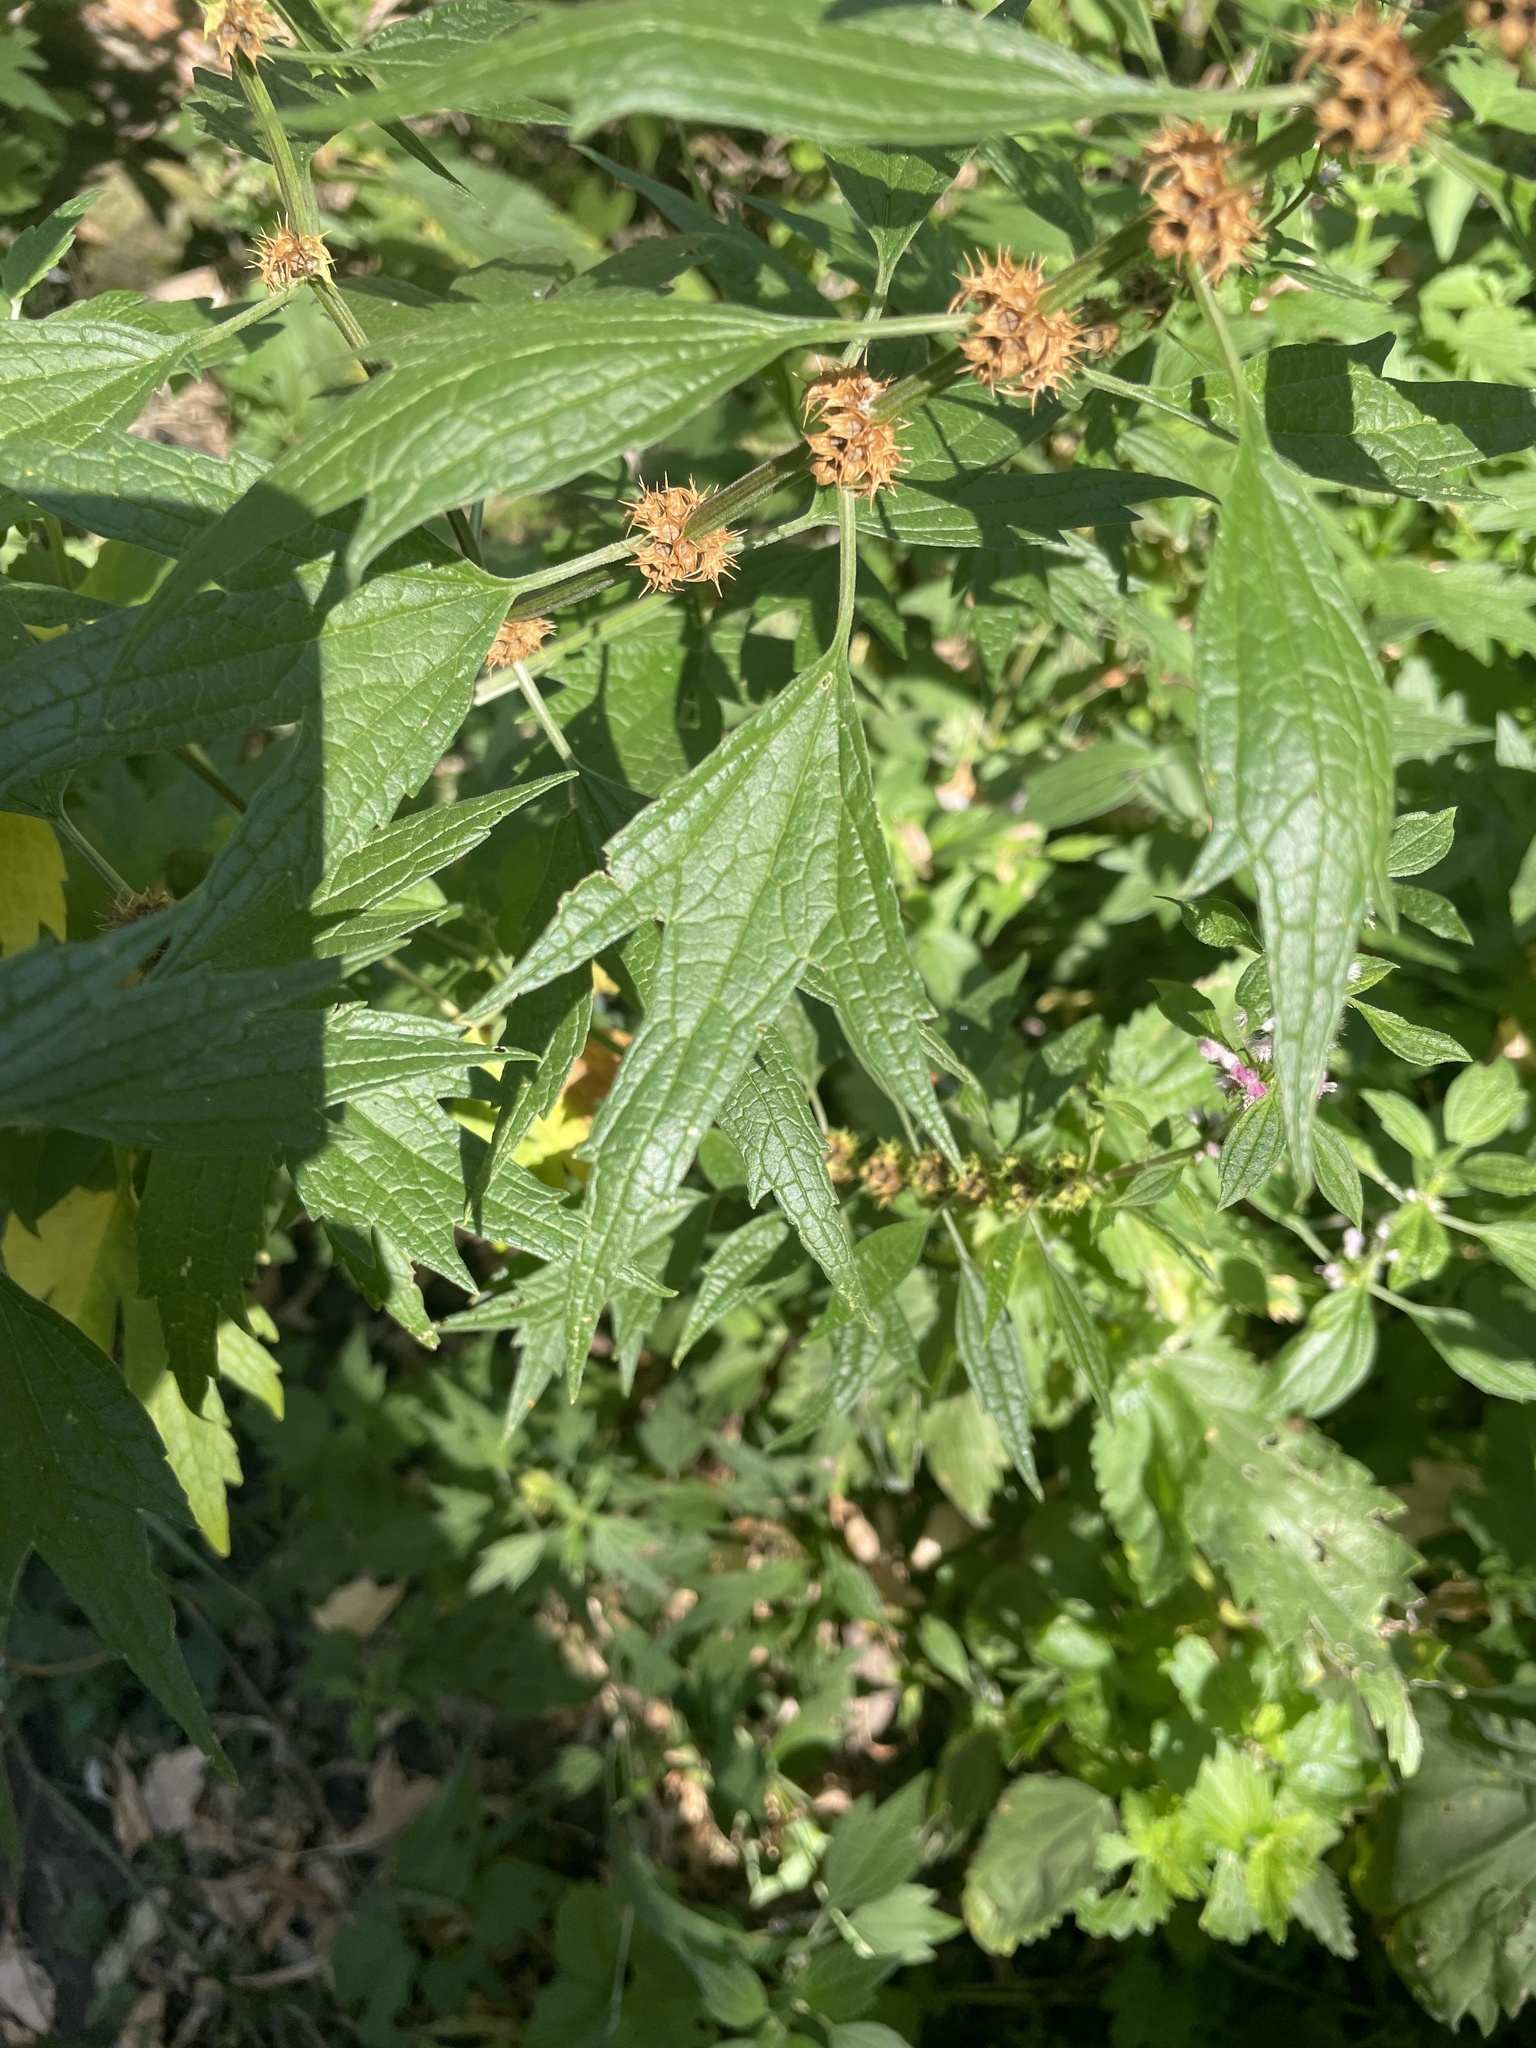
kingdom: Plantae
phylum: Tracheophyta
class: Magnoliopsida
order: Lamiales
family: Lamiaceae
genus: Leonurus
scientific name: Leonurus cardiaca
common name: Motherwort
